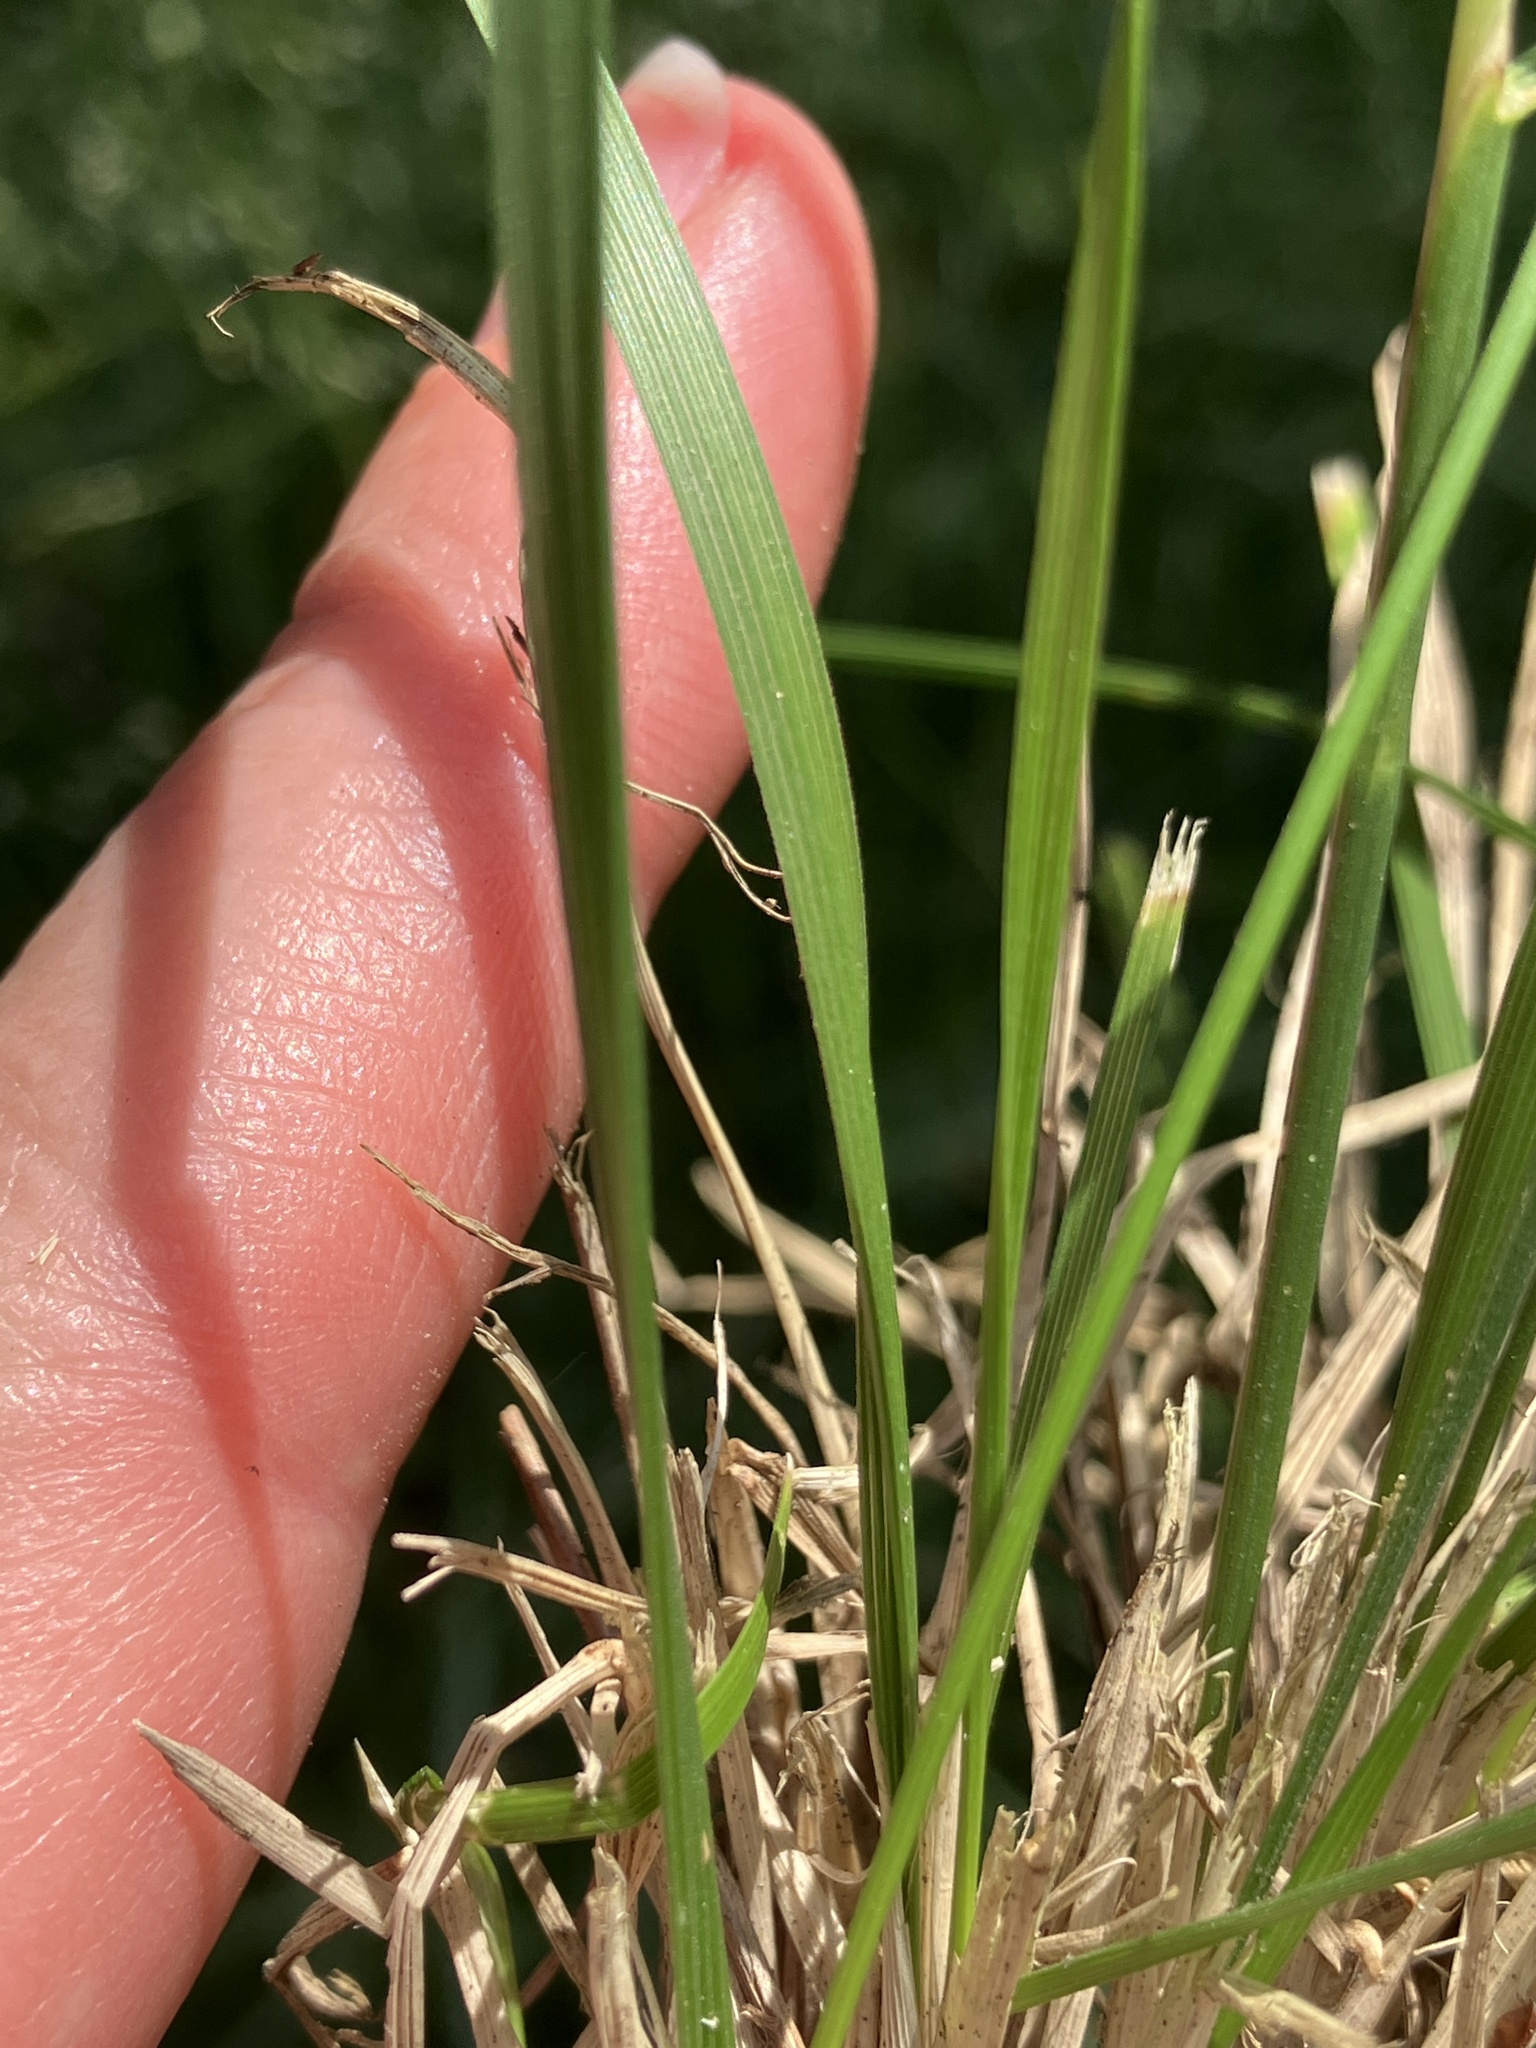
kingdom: Plantae
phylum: Tracheophyta
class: Liliopsida
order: Poales
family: Poaceae
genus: Deschampsia
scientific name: Deschampsia cespitosa
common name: Tufted hair-grass
